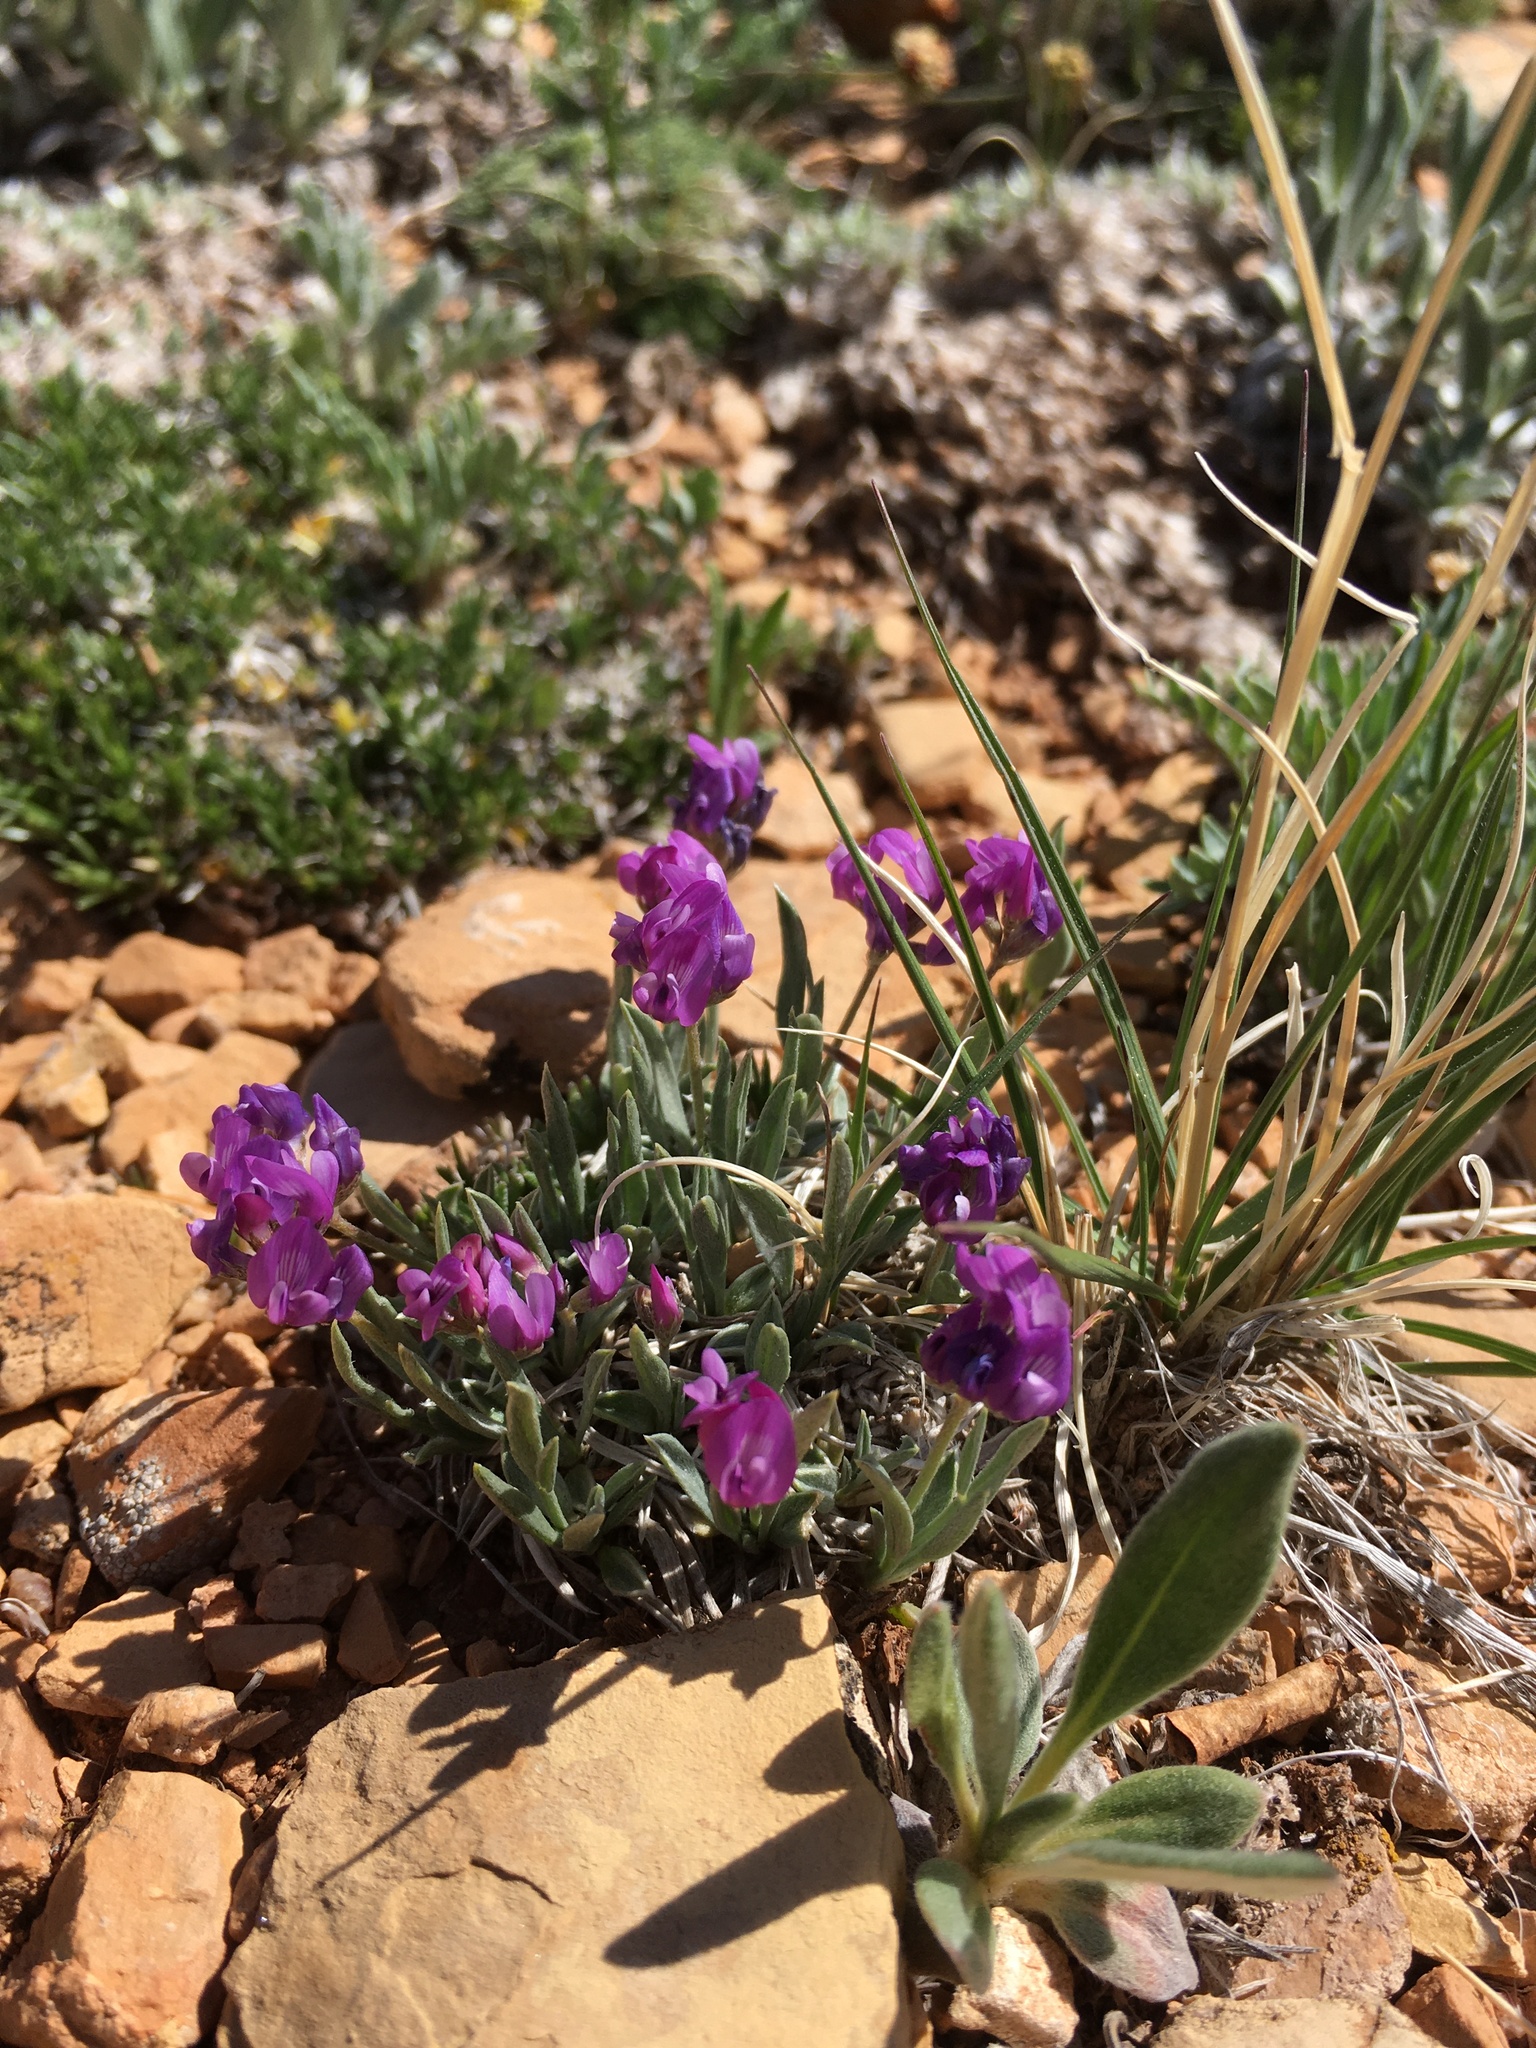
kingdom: Plantae
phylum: Tracheophyta
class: Magnoliopsida
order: Fabales
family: Fabaceae
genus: Astragalus
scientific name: Astragalus spatulatus
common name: Draba milk-vetch
